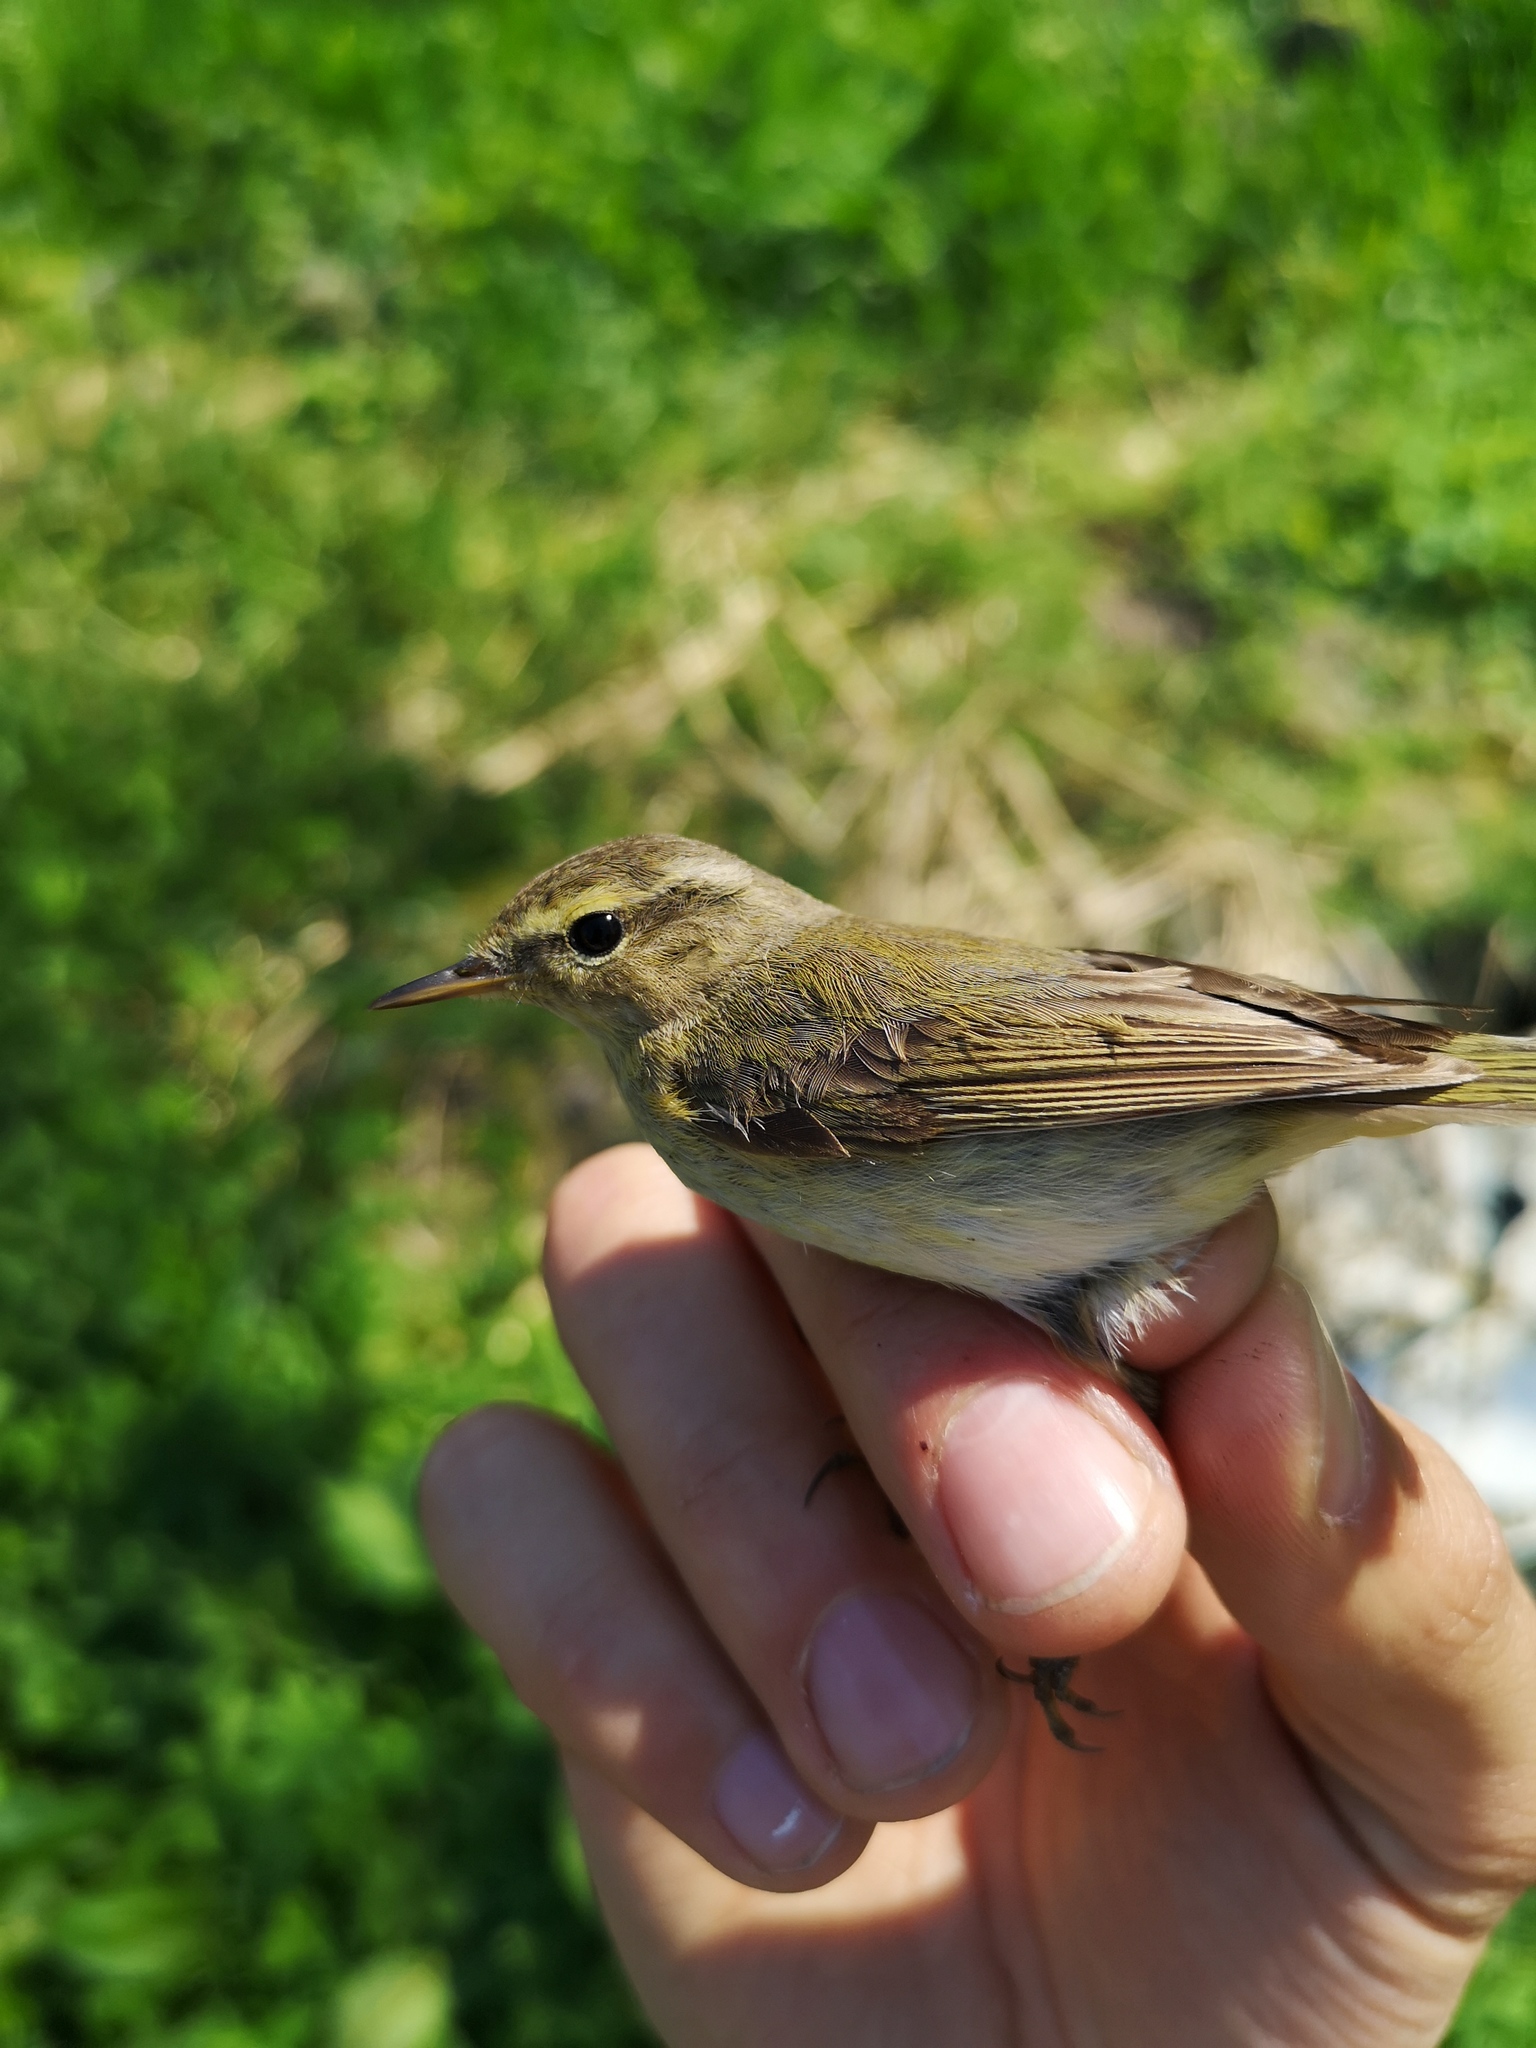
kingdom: Animalia
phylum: Chordata
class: Aves
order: Passeriformes
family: Phylloscopidae
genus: Phylloscopus
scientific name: Phylloscopus trochilus
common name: Willow warbler
